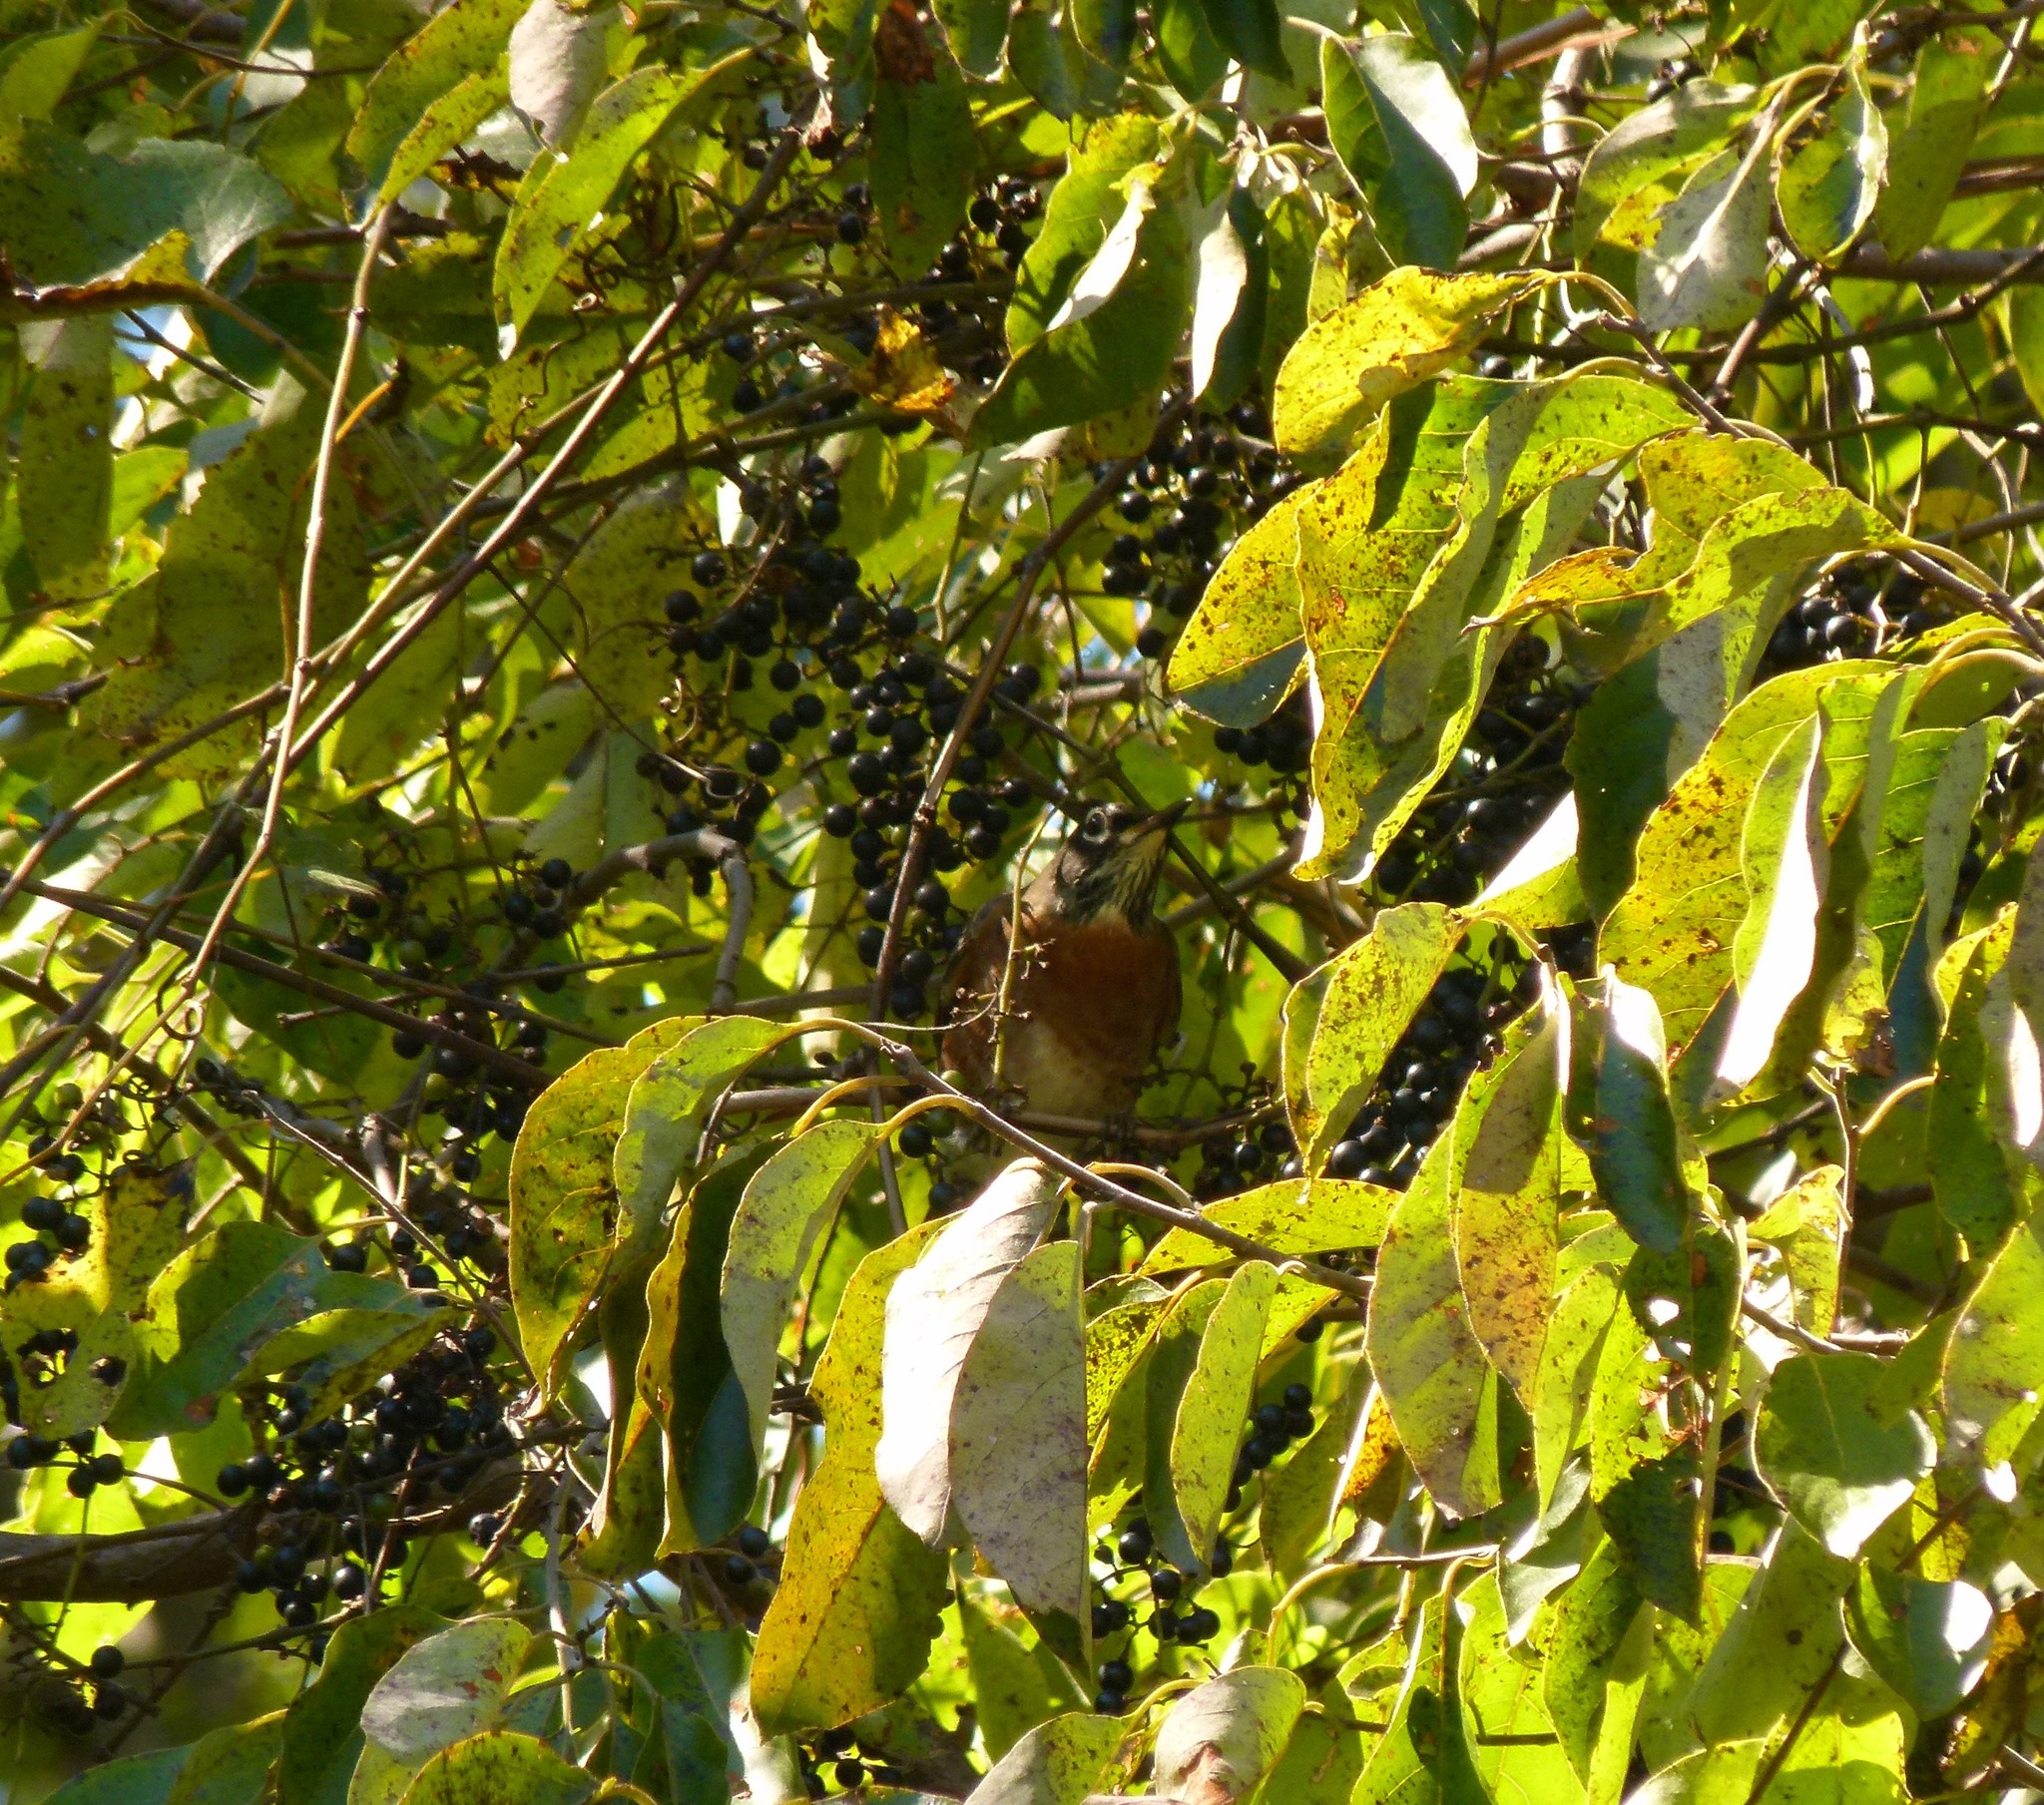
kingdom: Animalia
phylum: Chordata
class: Aves
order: Passeriformes
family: Turdidae
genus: Turdus
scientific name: Turdus migratorius
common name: American robin
